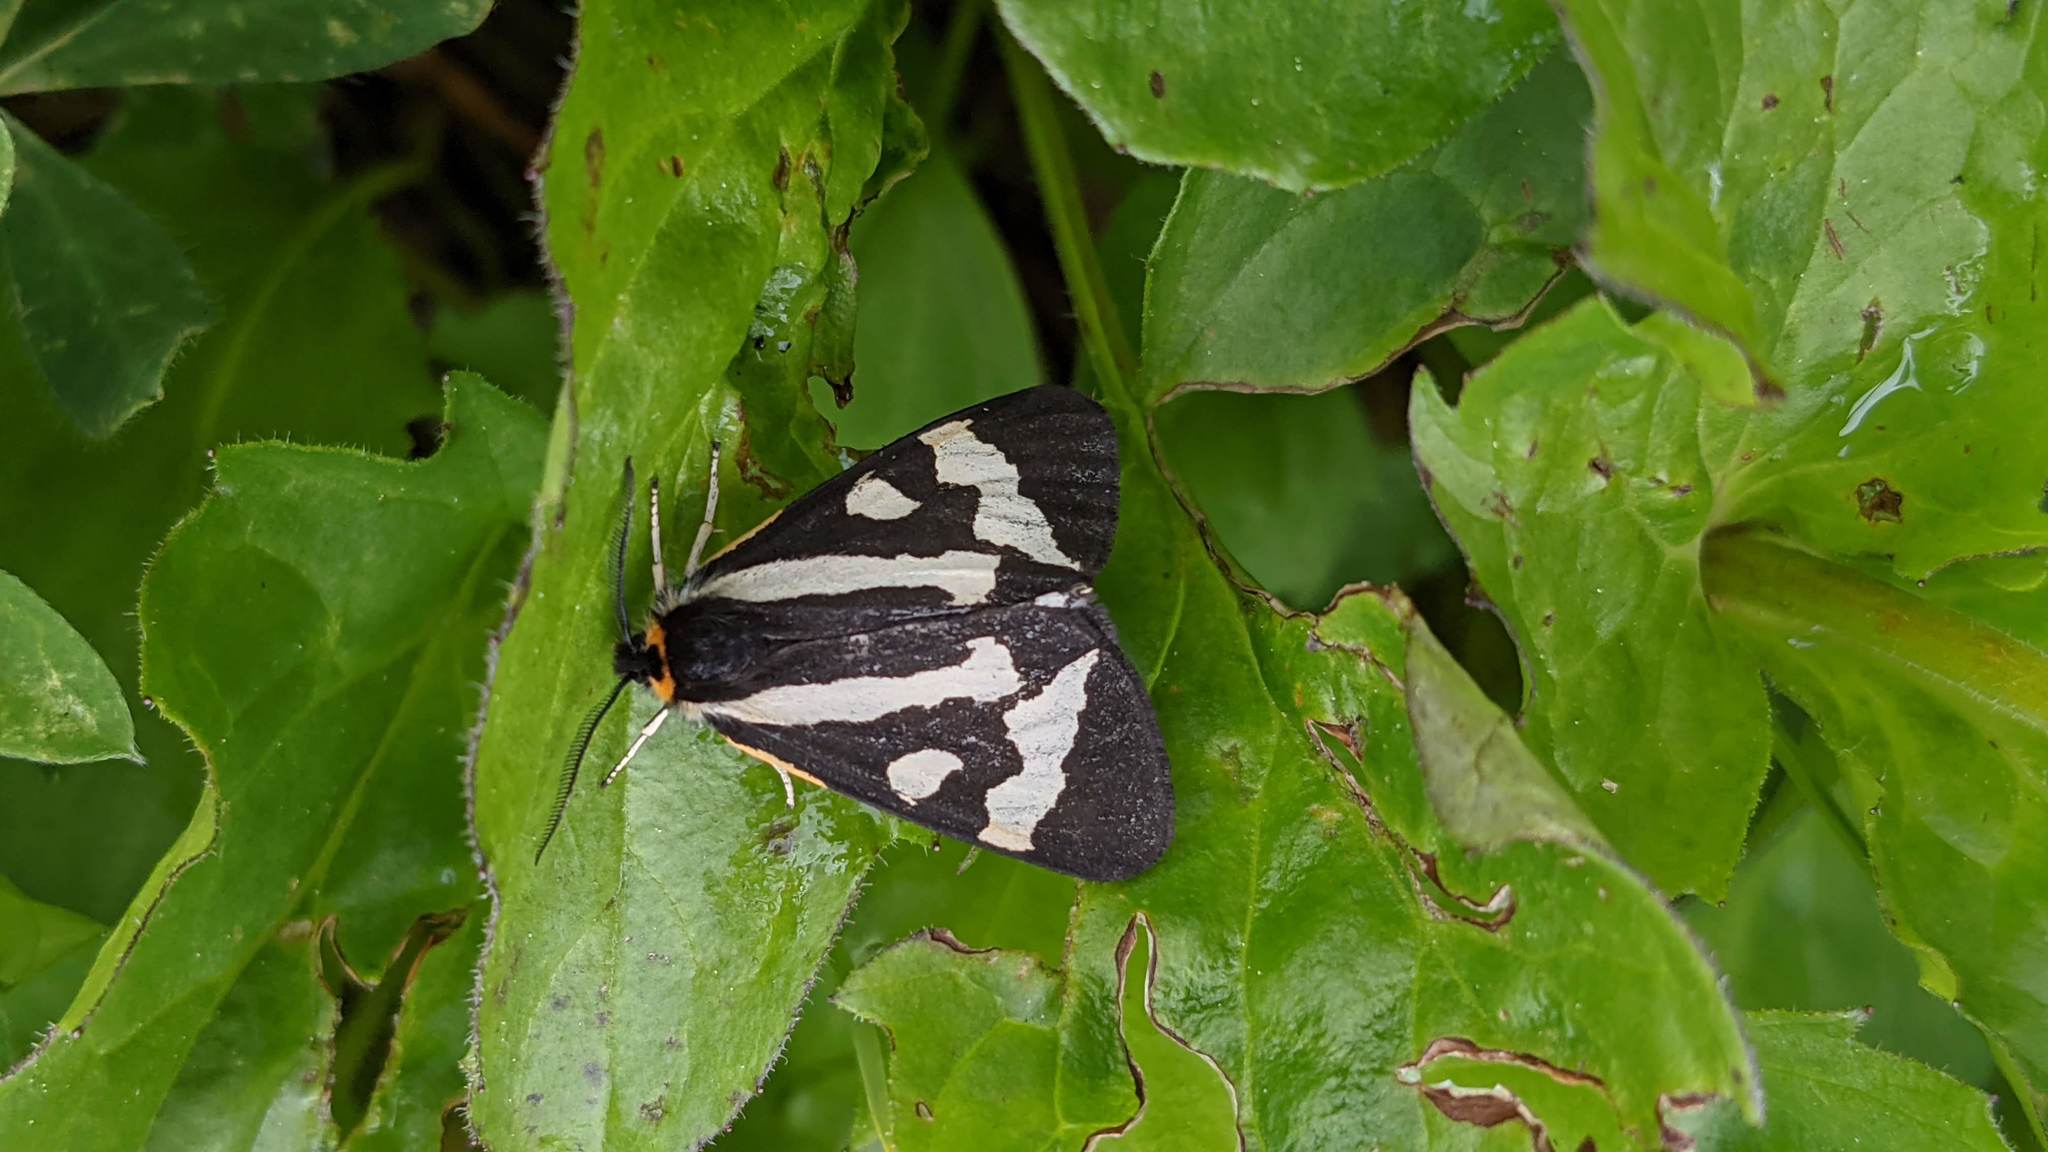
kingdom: Animalia
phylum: Arthropoda
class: Insecta
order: Lepidoptera
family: Erebidae
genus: Parasemia
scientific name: Parasemia plantaginis
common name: Wood tiger
